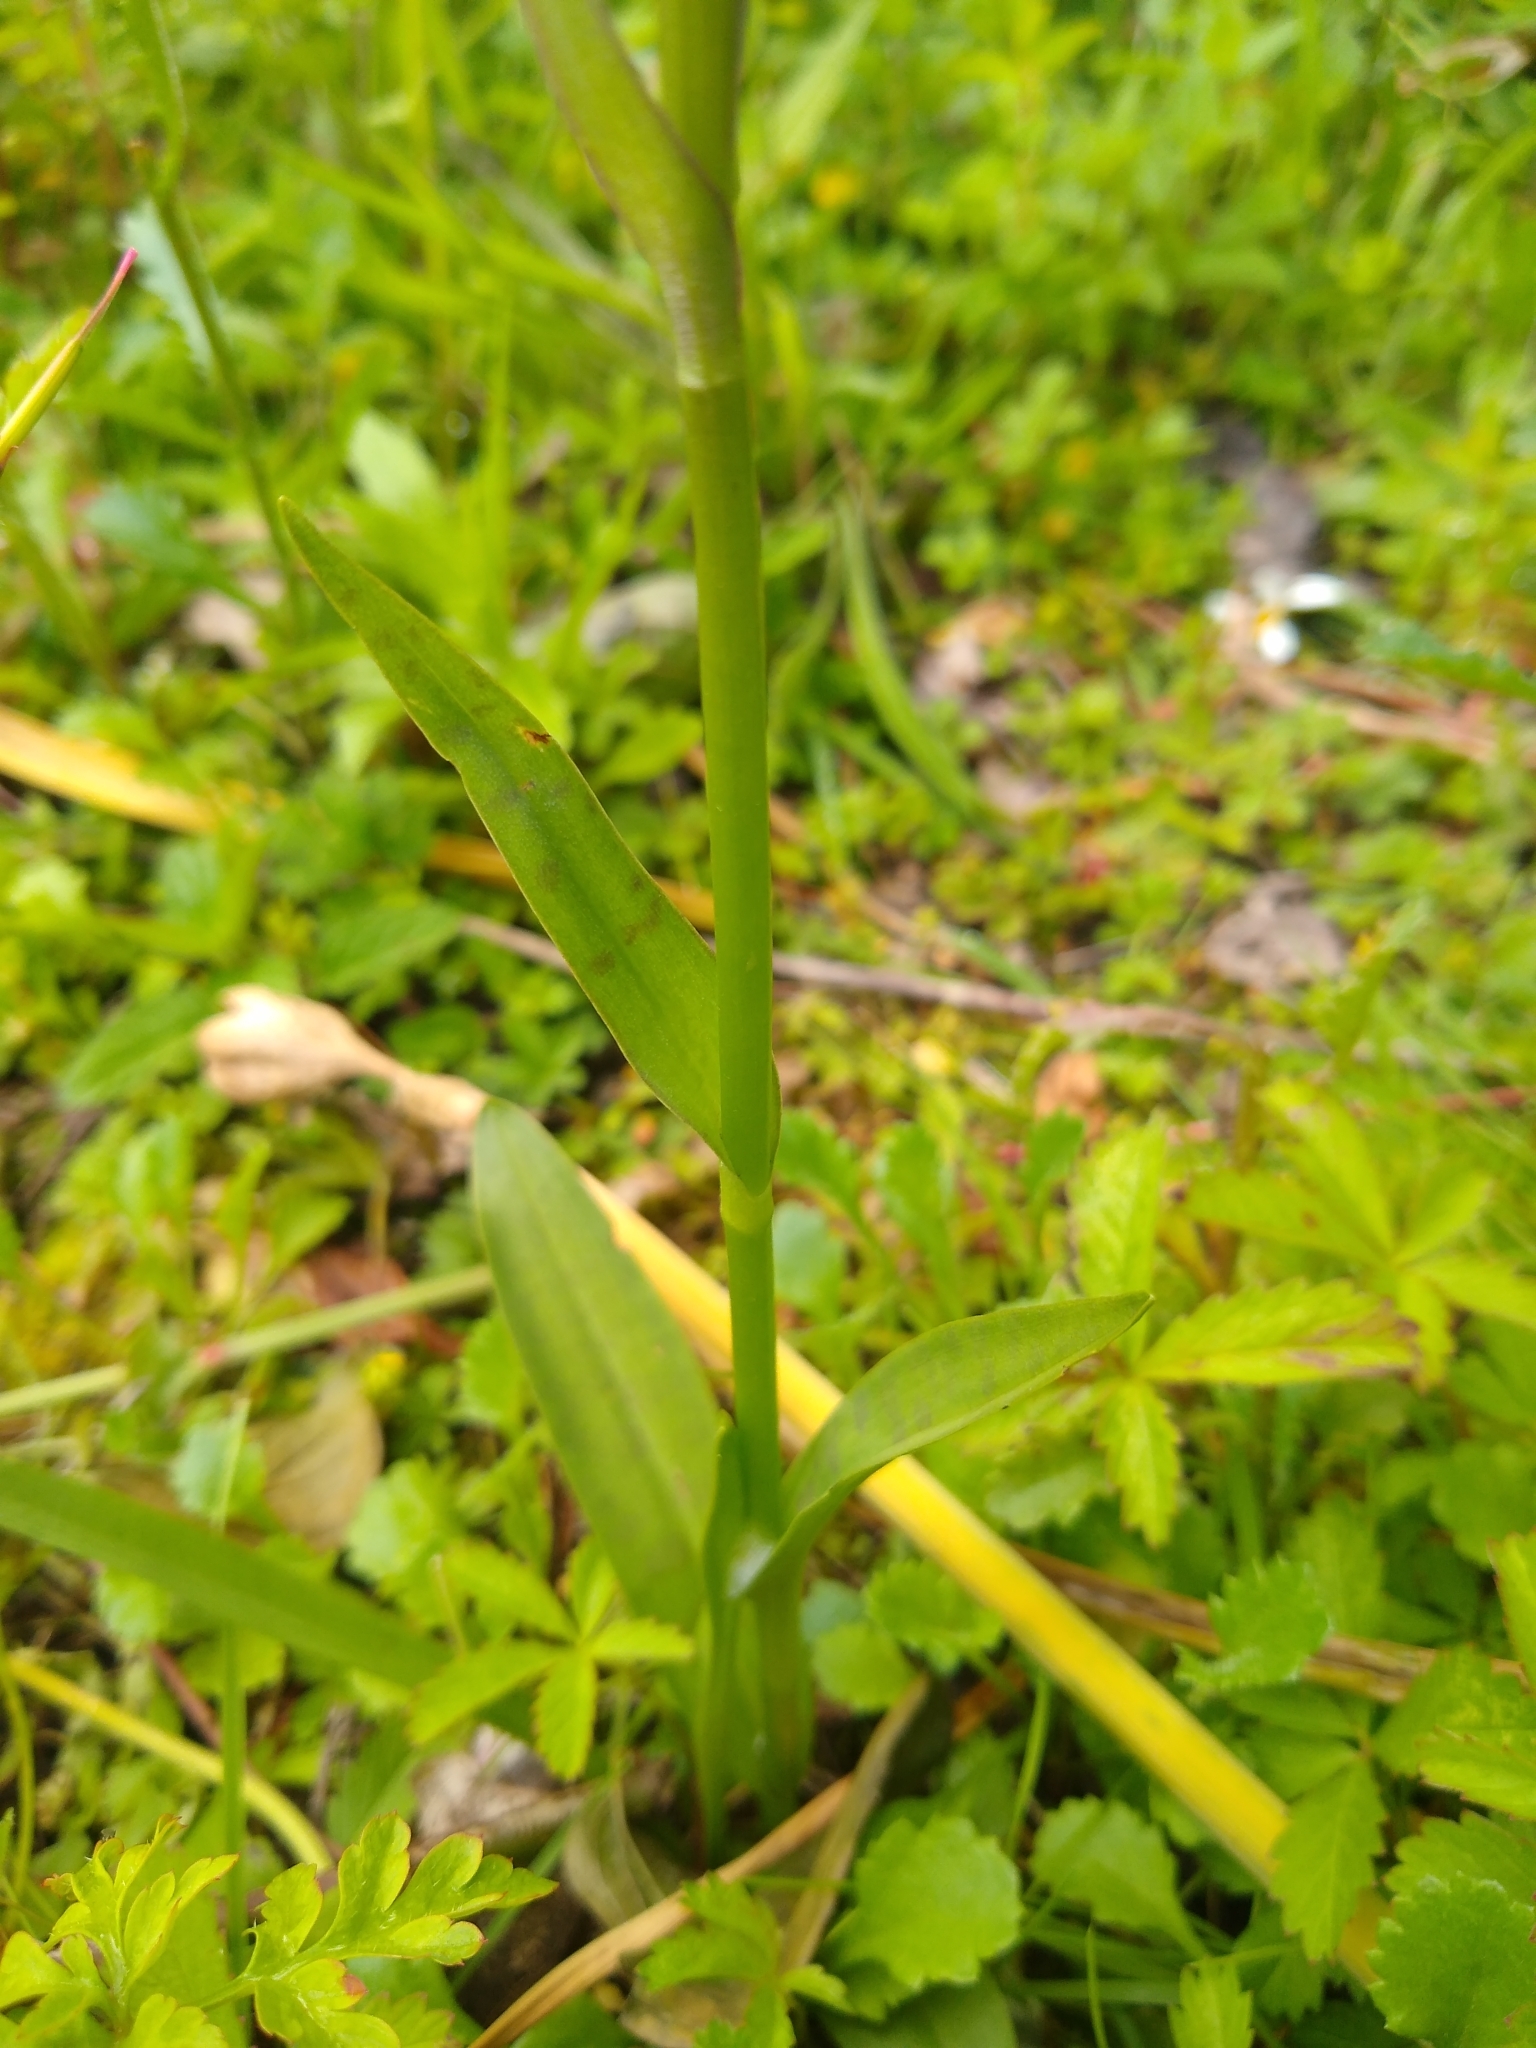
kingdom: Plantae
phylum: Tracheophyta
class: Liliopsida
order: Asparagales
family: Orchidaceae
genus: Dactylorhiza
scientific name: Dactylorhiza maculata
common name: Heath spotted-orchid
